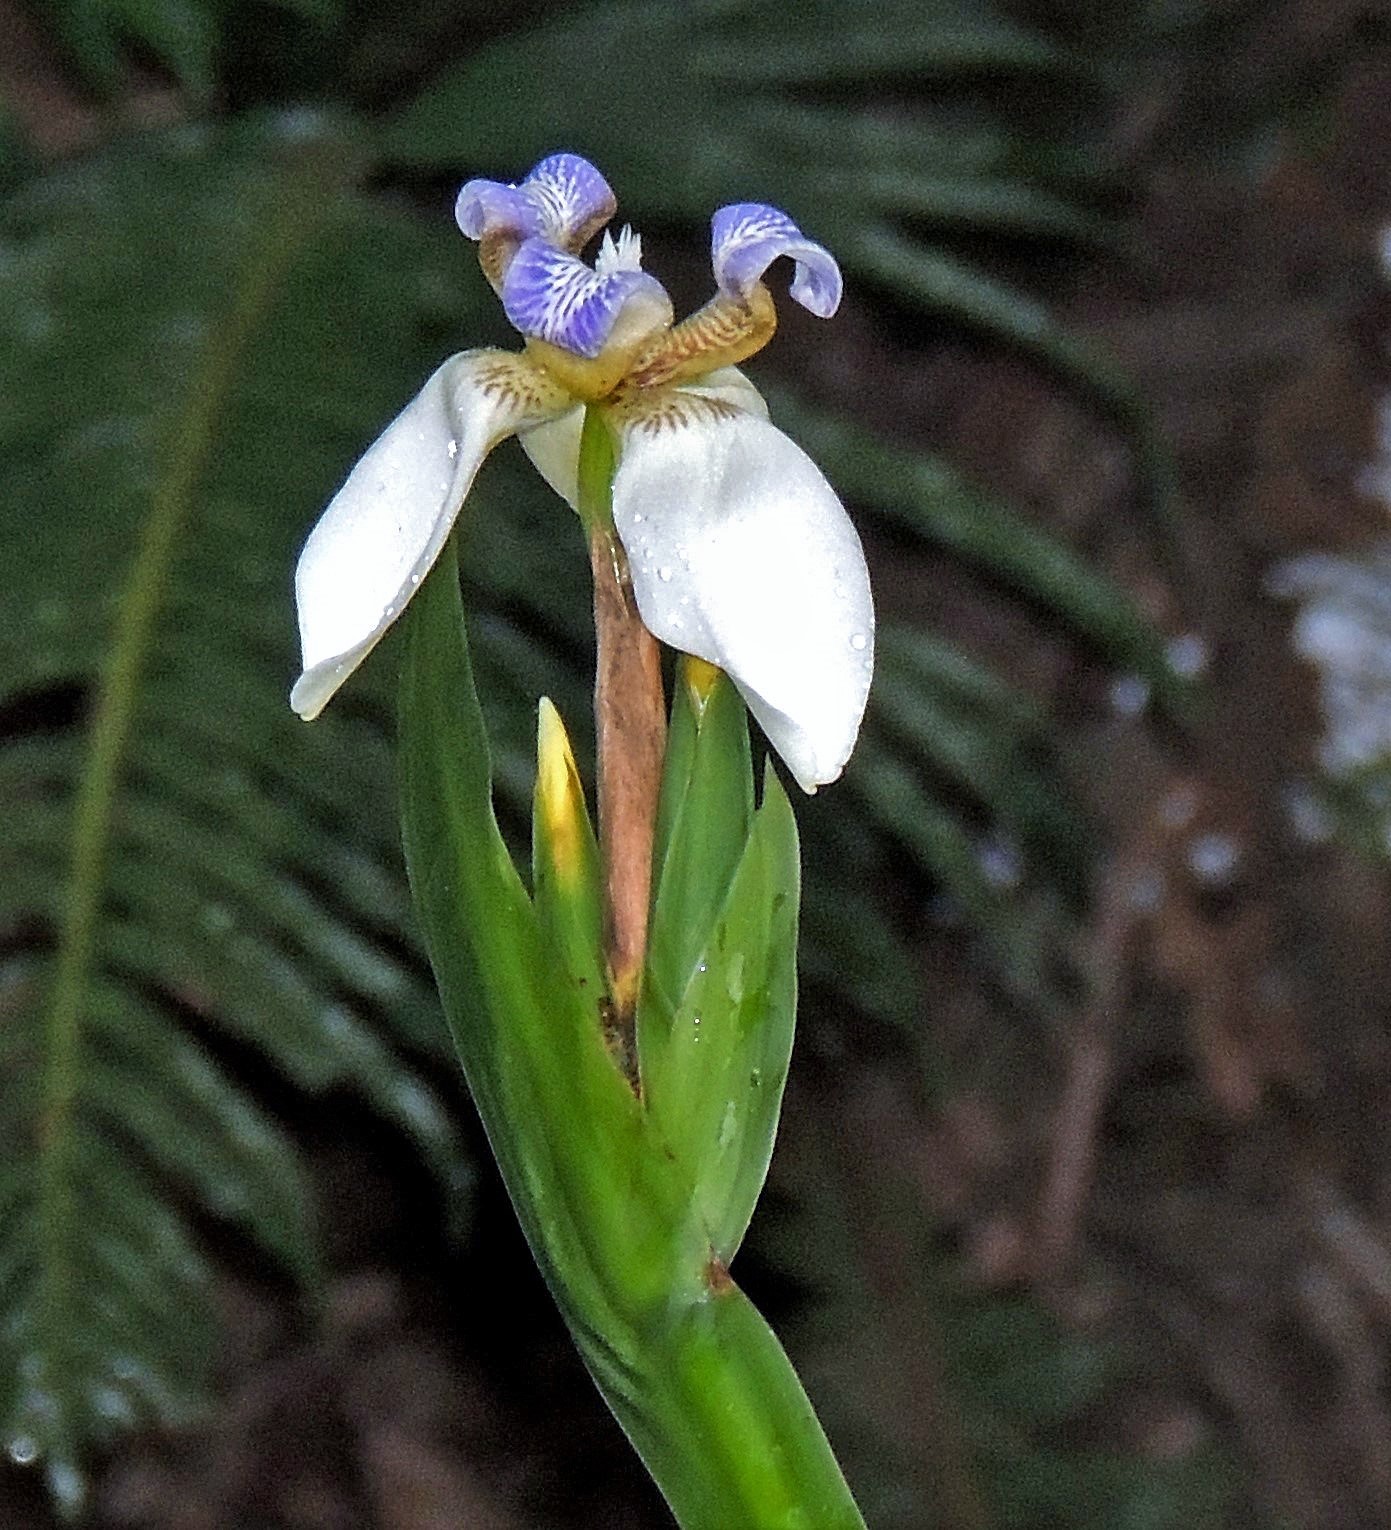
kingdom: Plantae
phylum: Tracheophyta
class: Liliopsida
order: Asparagales
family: Iridaceae
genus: Trimezia
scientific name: Trimezia candida
